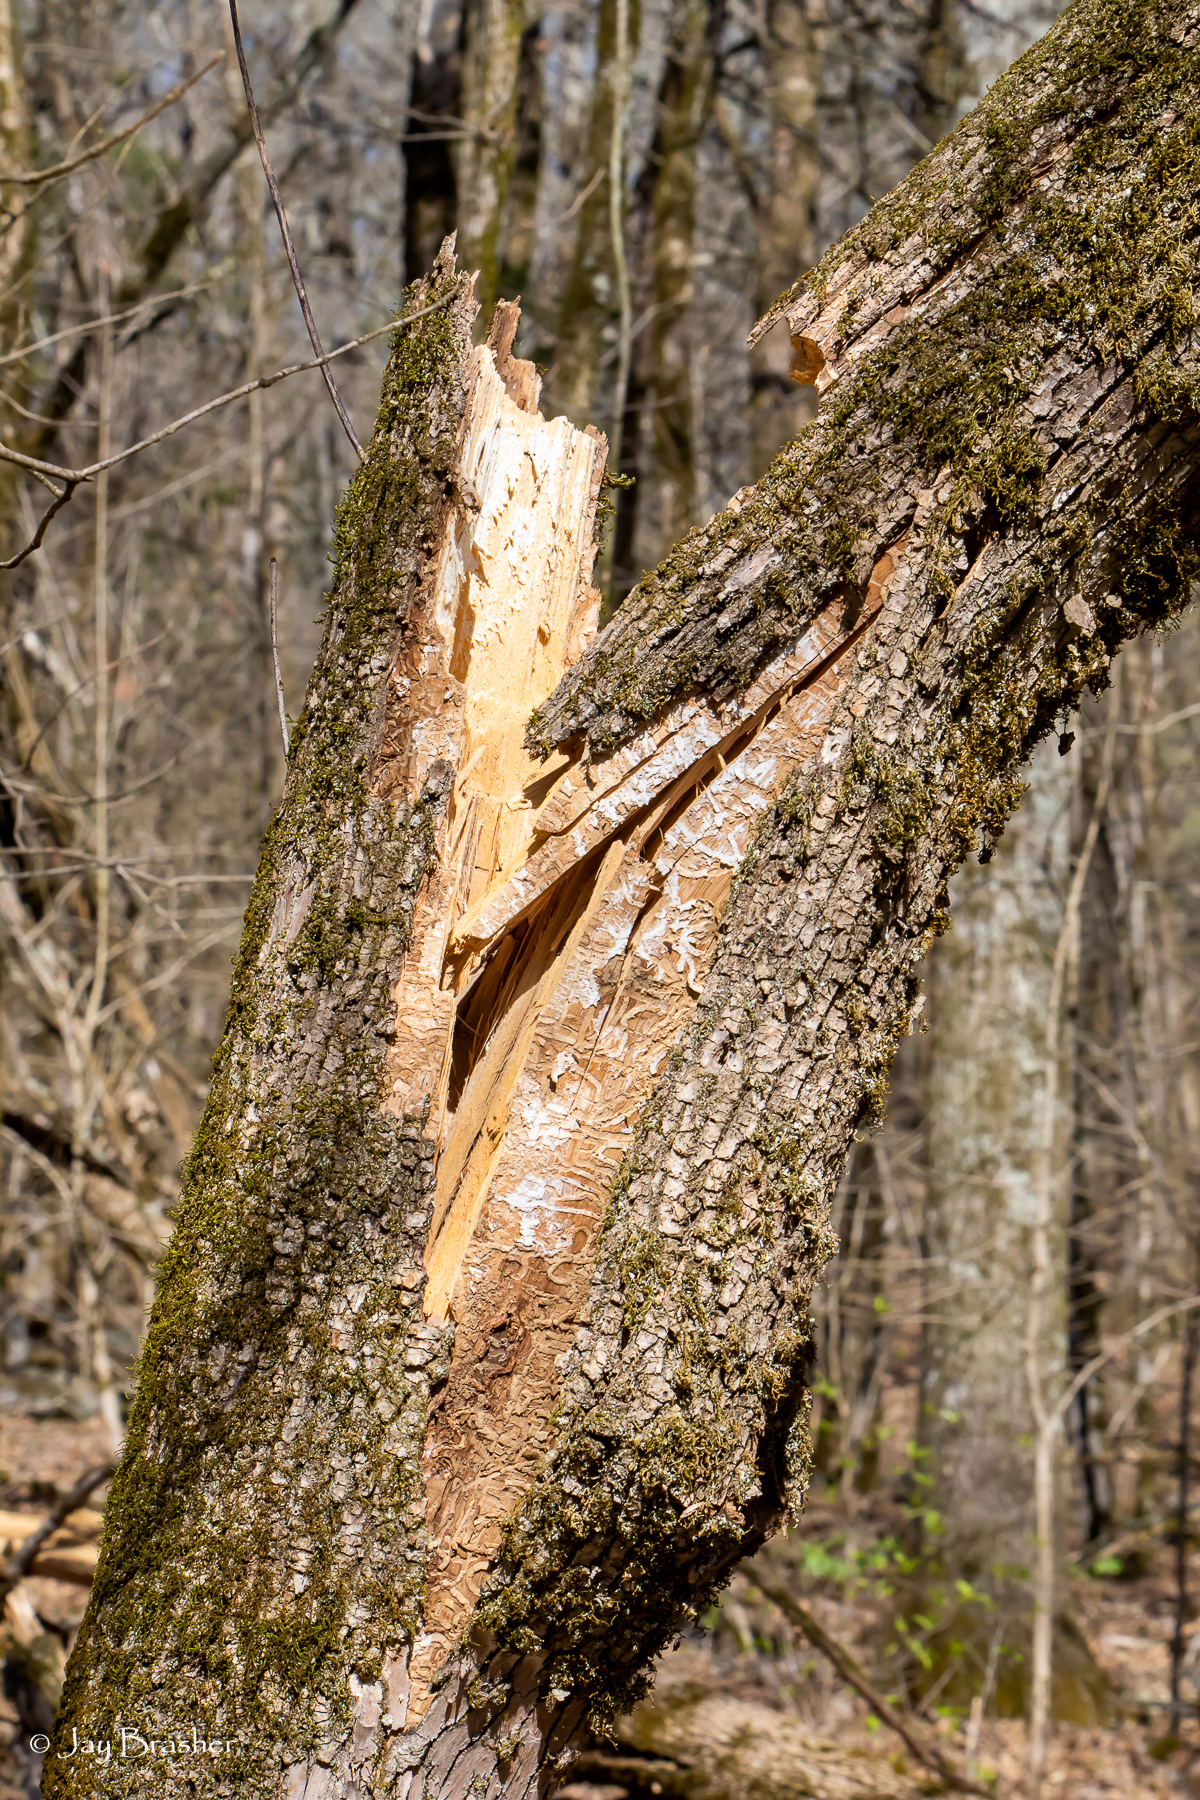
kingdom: Animalia
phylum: Arthropoda
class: Insecta
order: Coleoptera
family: Buprestidae
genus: Agrilus
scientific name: Agrilus planipennis
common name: Emerald ash borer
